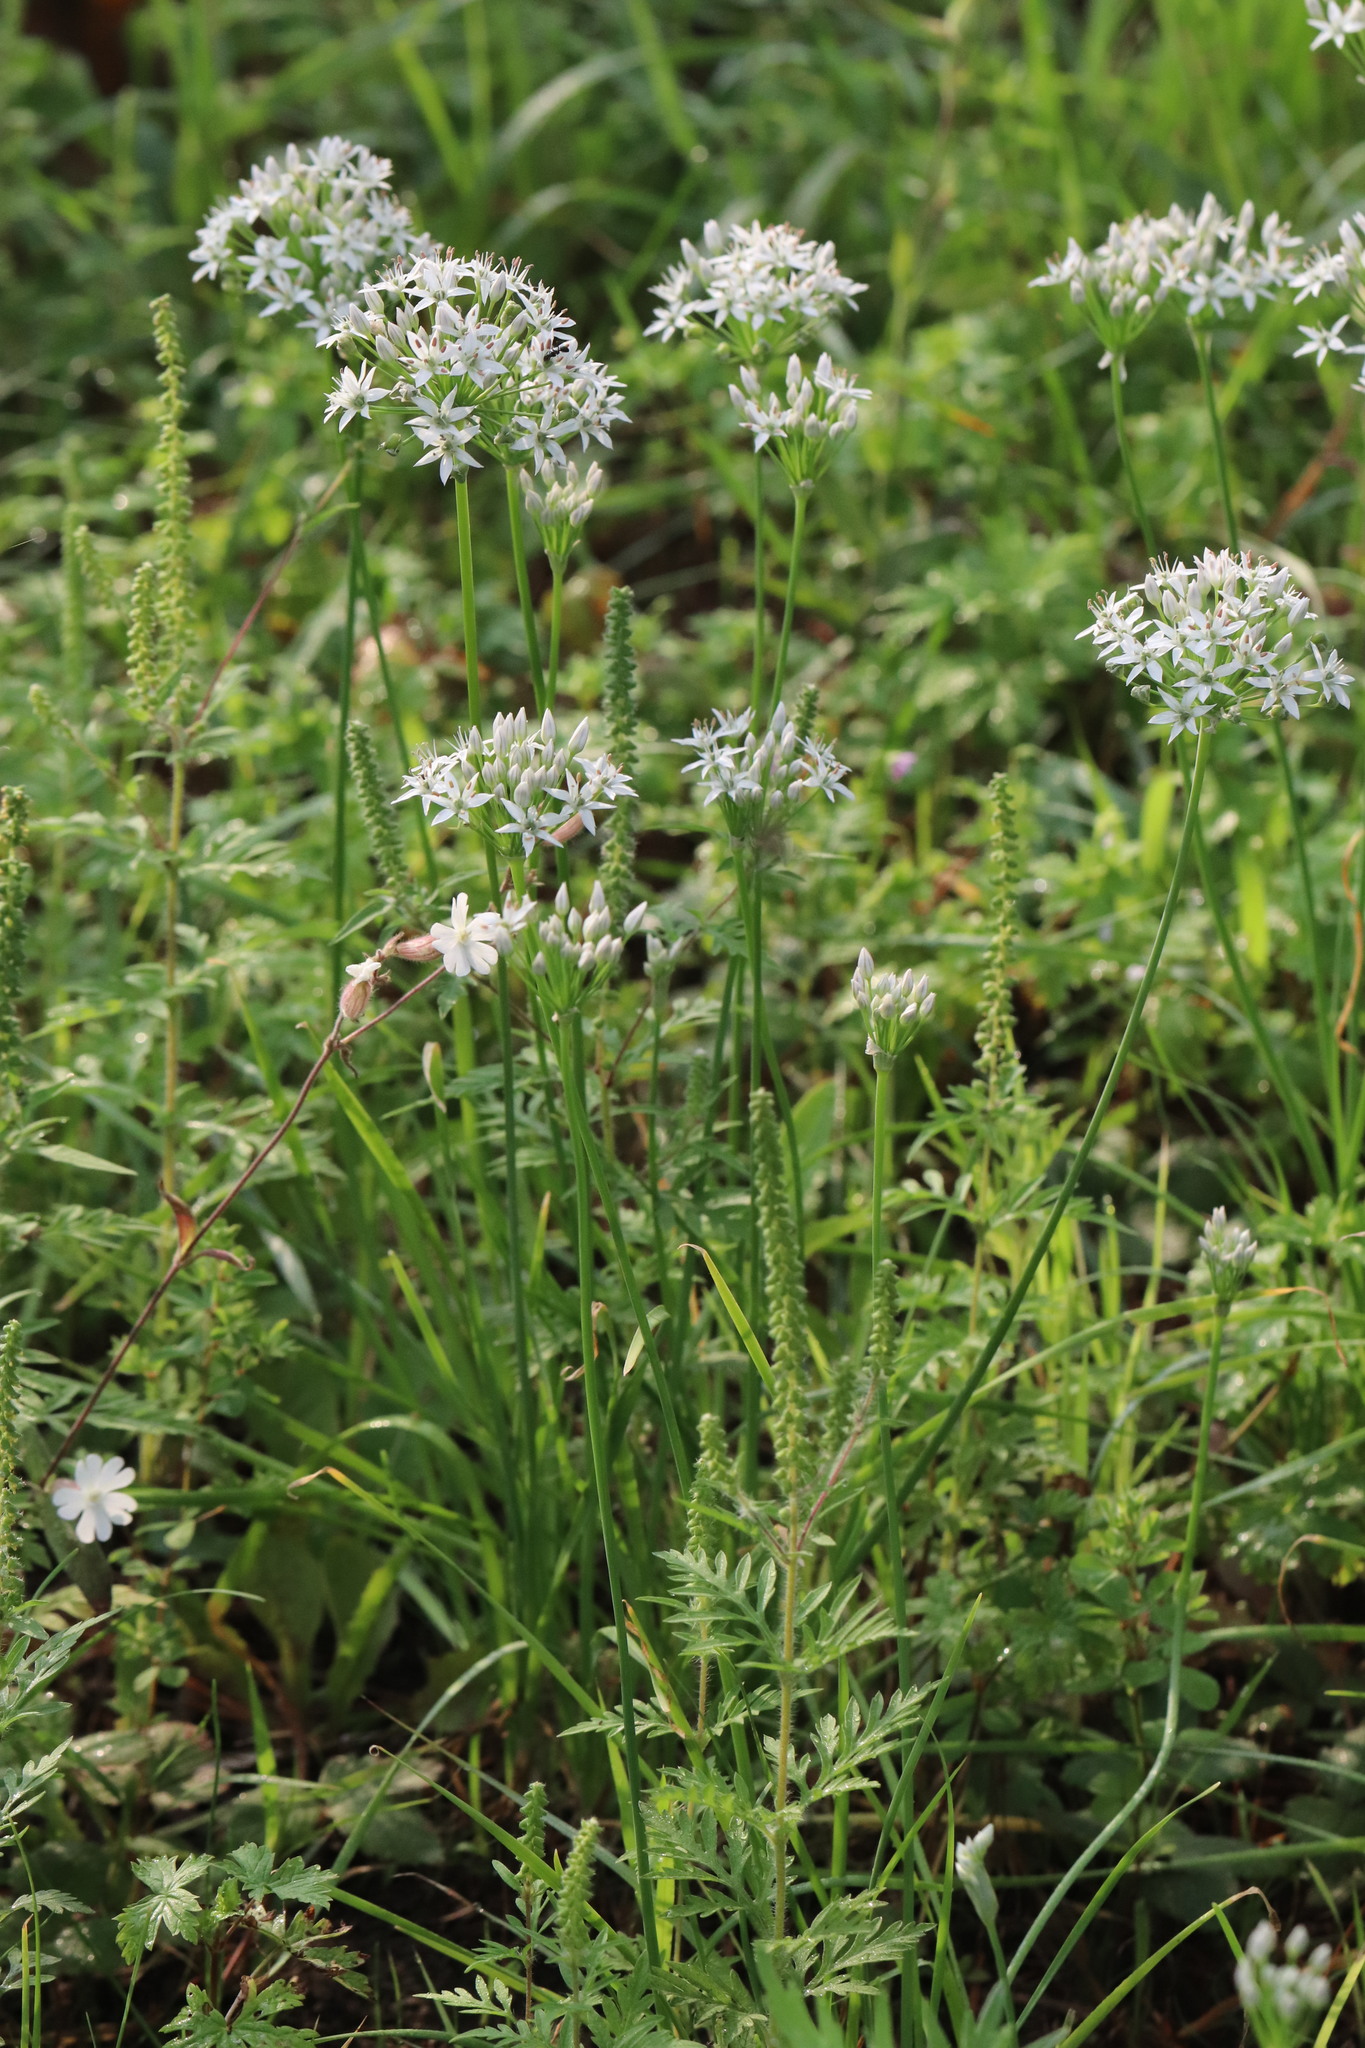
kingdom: Plantae
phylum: Tracheophyta
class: Liliopsida
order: Asparagales
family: Amaryllidaceae
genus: Allium
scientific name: Allium ramosum
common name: Fragrant garlic
